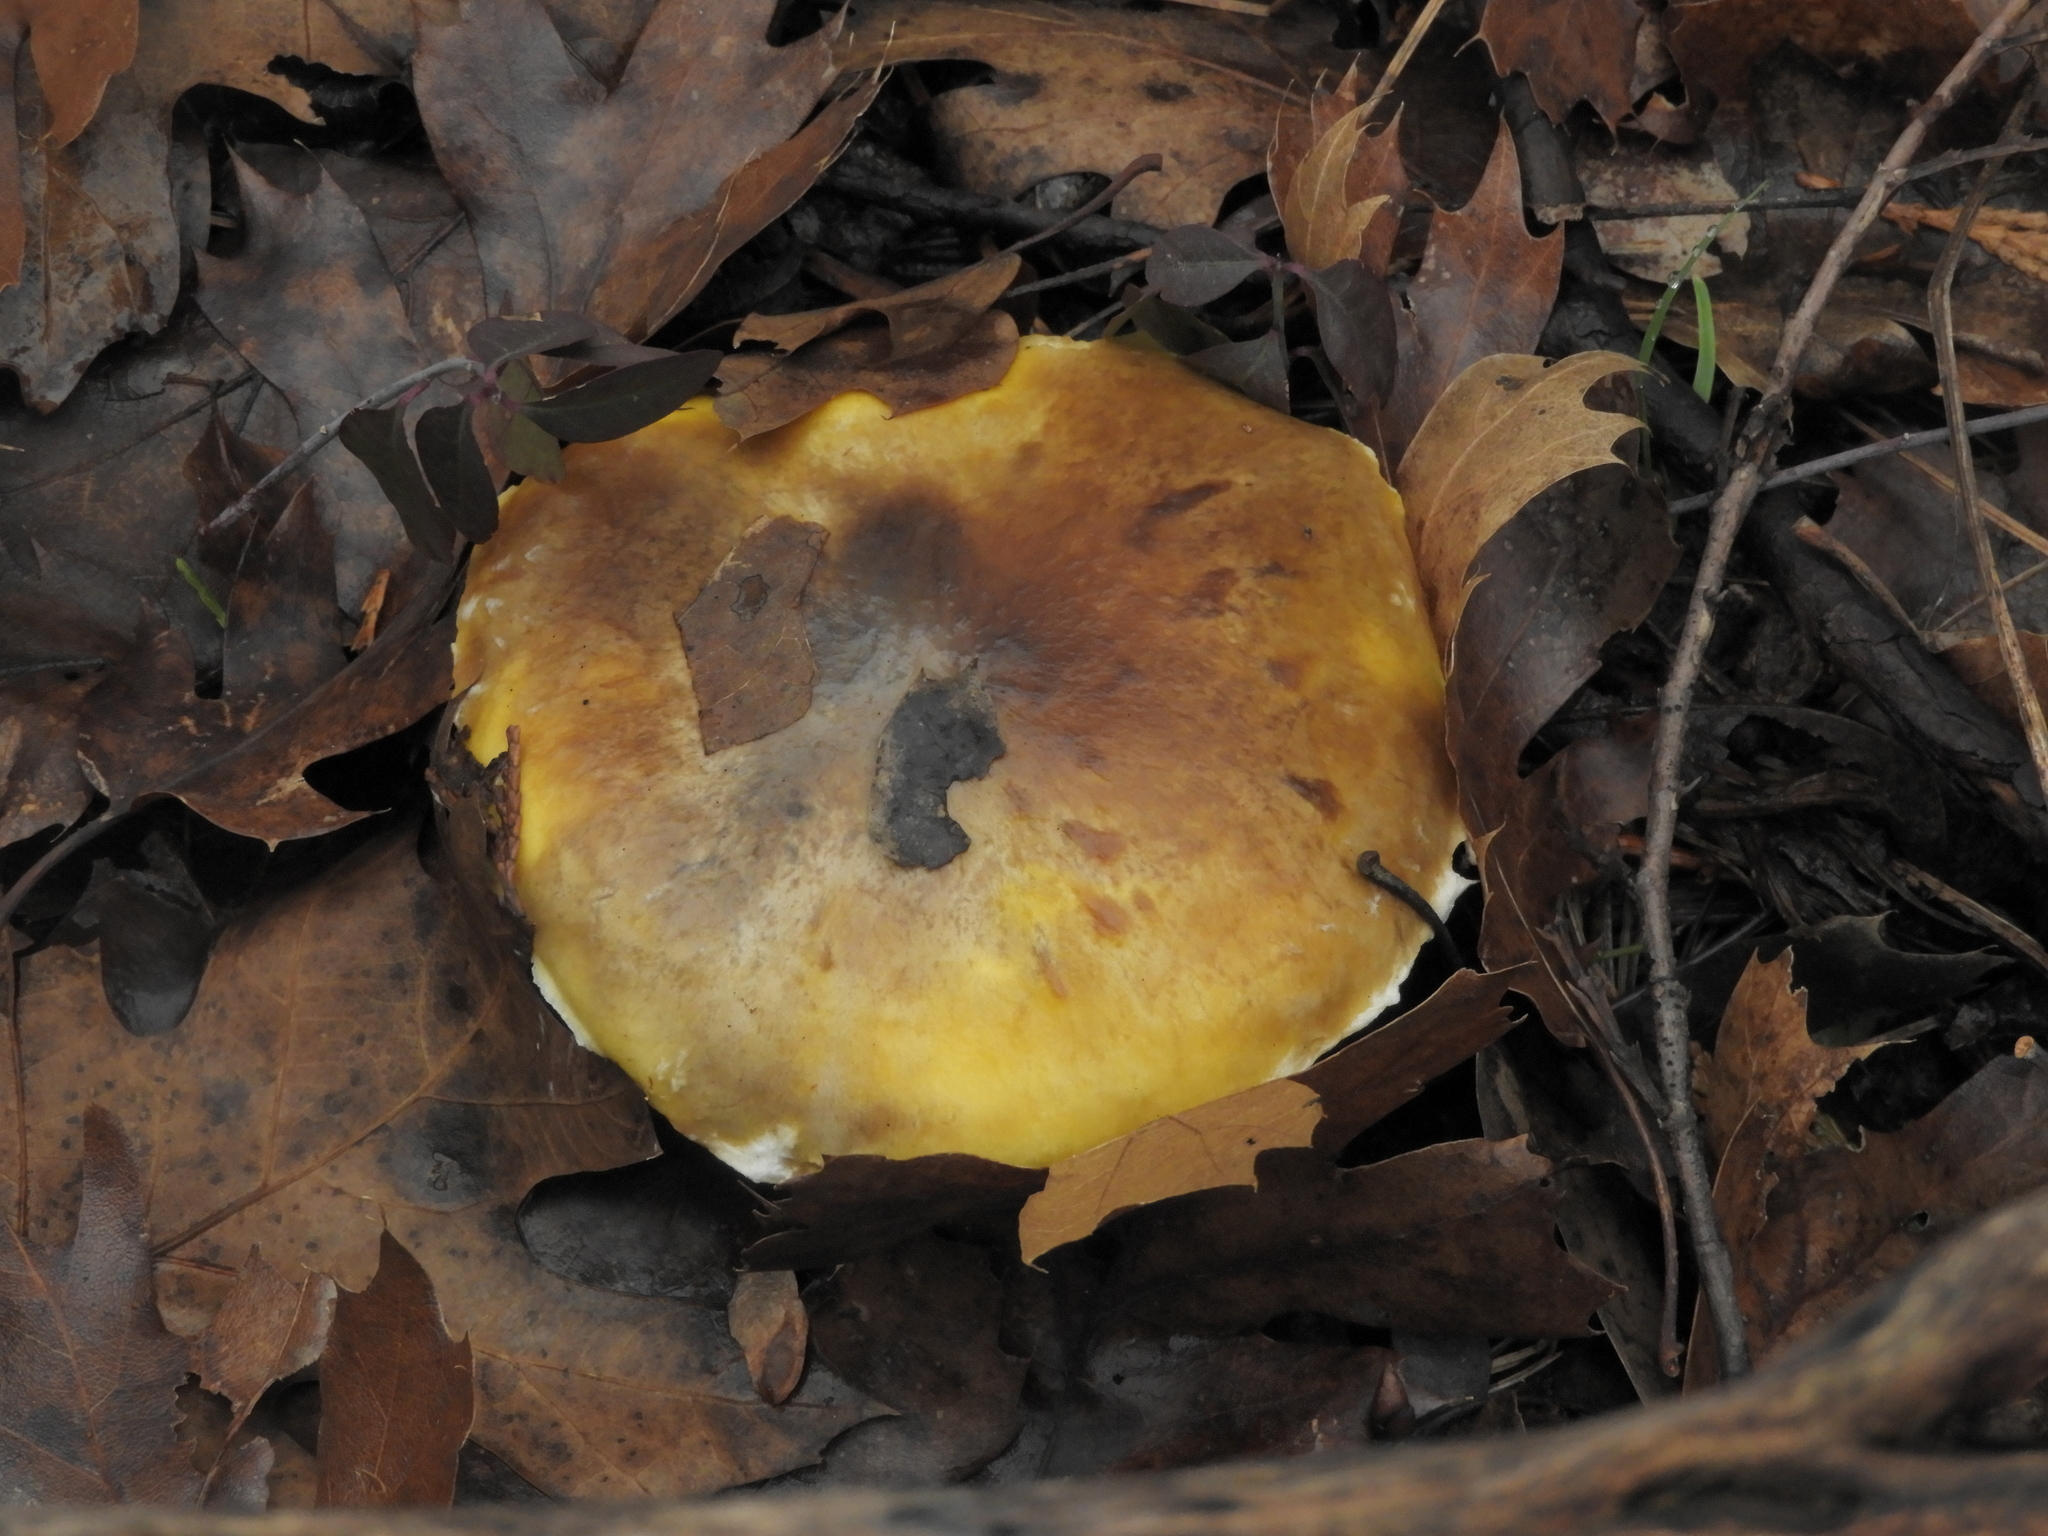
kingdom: Fungi
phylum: Basidiomycota
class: Agaricomycetes
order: Agaricales
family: Agaricaceae
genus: Floccularia
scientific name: Floccularia albolanaripes
